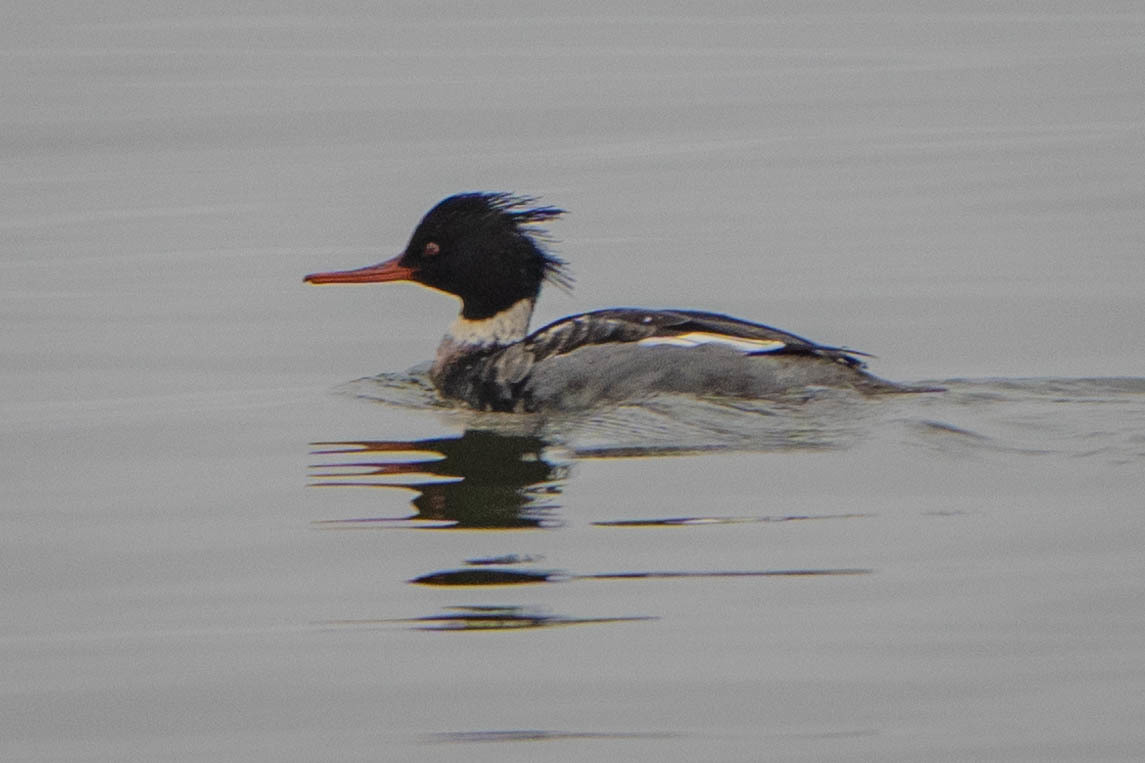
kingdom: Animalia
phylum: Chordata
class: Aves
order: Anseriformes
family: Anatidae
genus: Mergus
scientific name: Mergus serrator
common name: Red-breasted merganser
